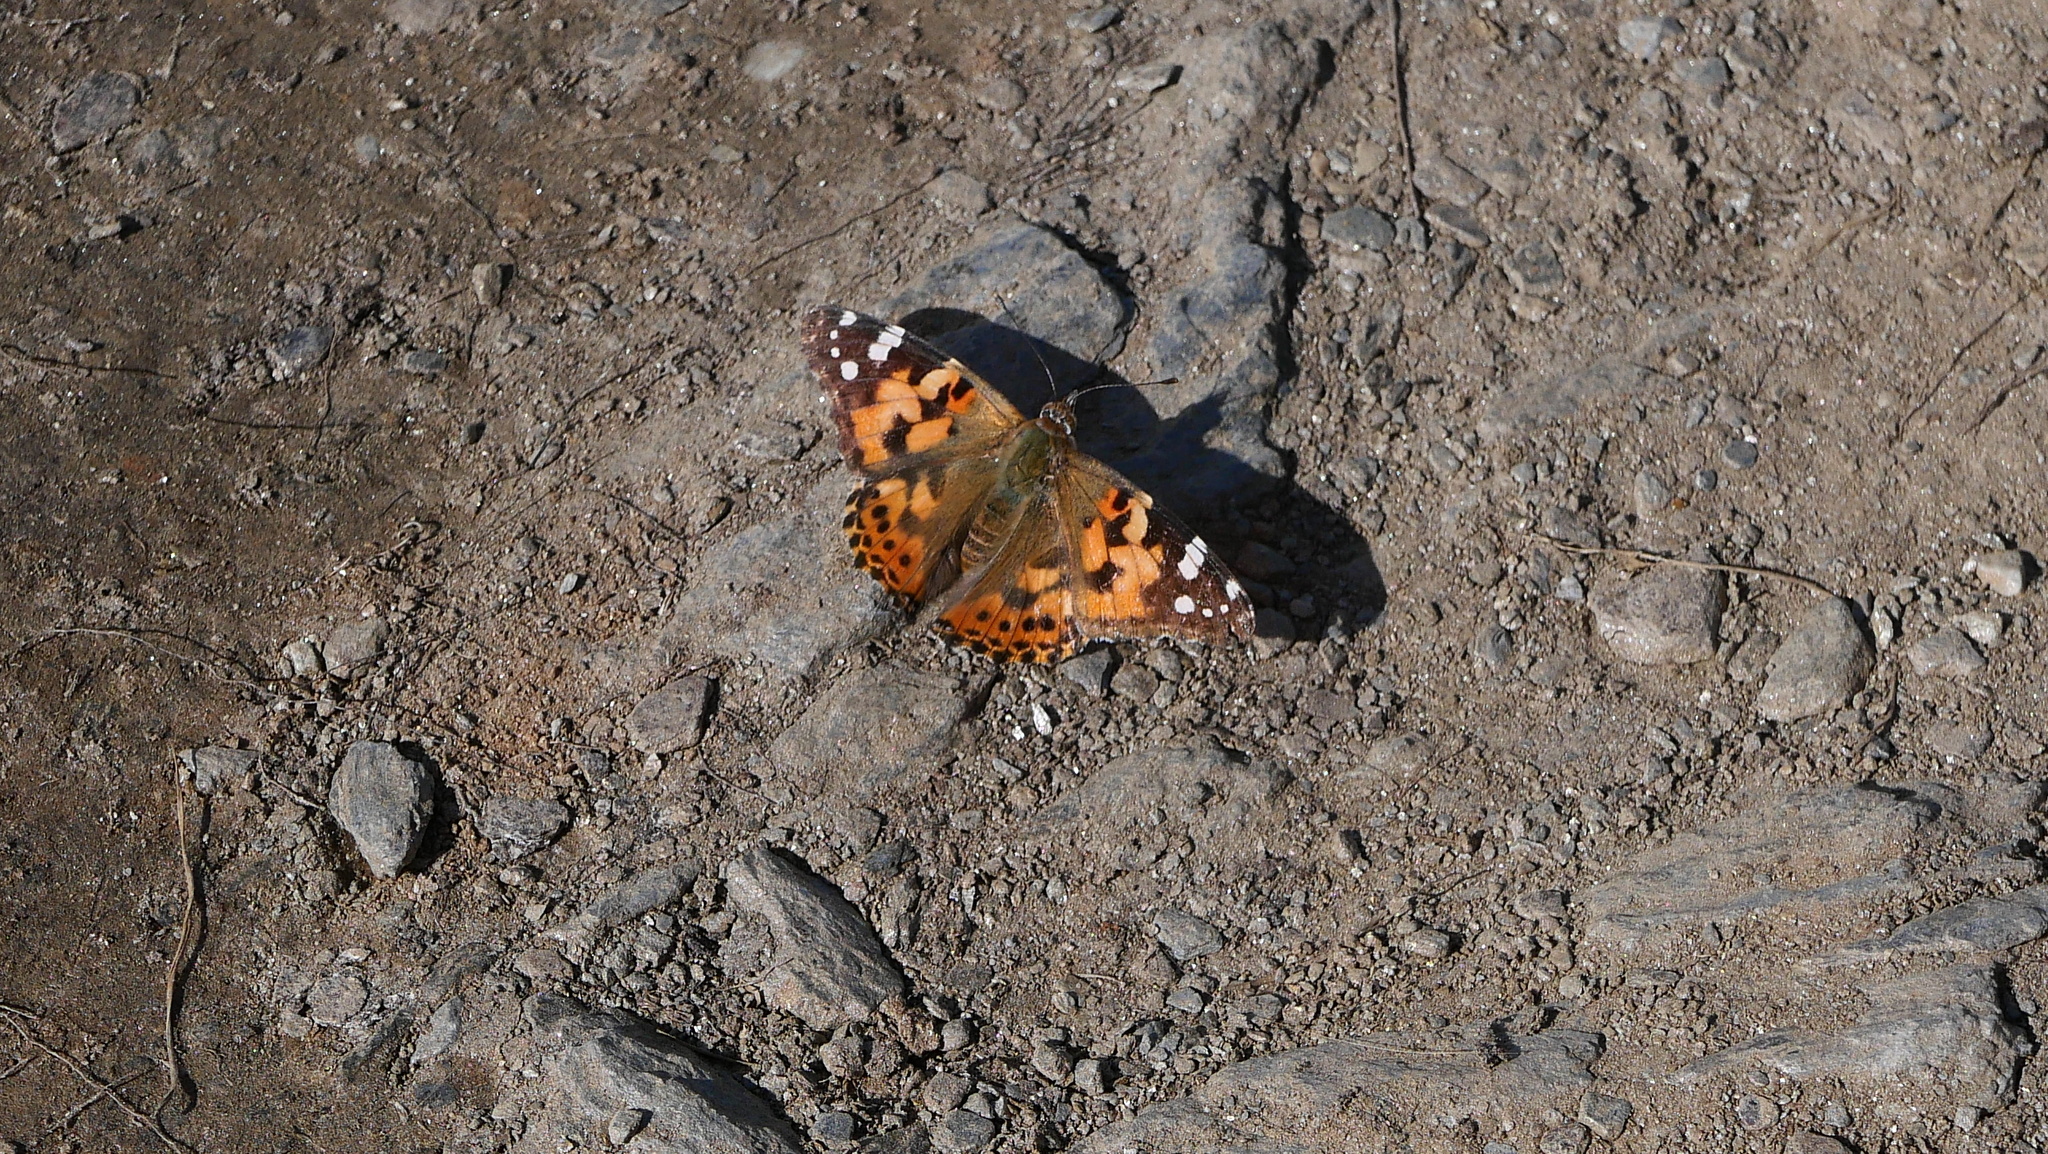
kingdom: Animalia
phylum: Arthropoda
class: Insecta
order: Lepidoptera
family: Nymphalidae
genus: Vanessa
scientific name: Vanessa cardui
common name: Painted lady
